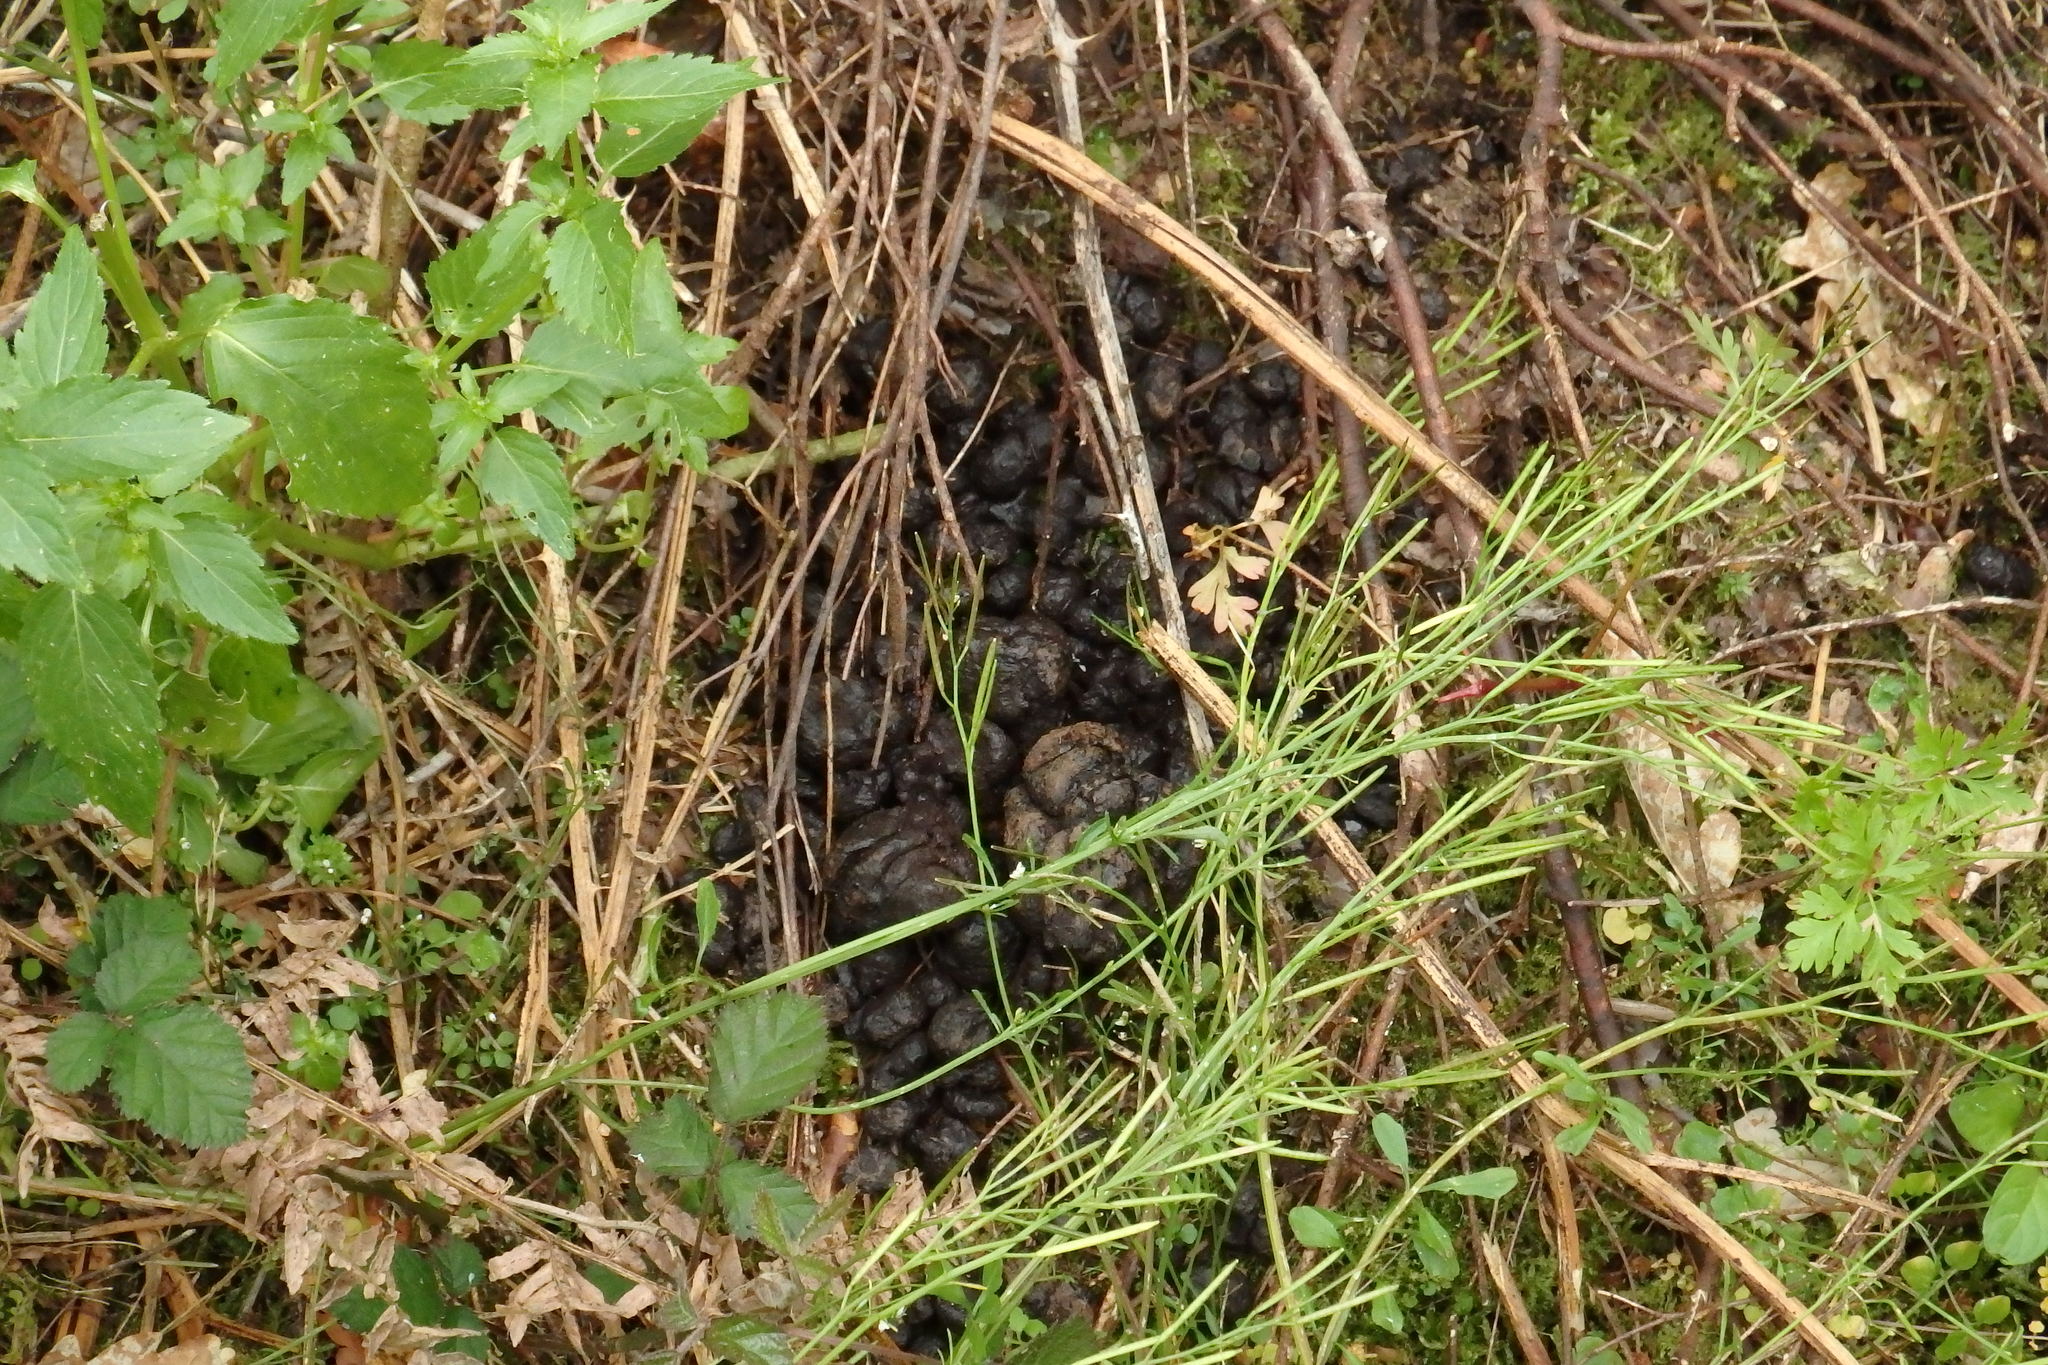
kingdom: Animalia
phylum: Chordata
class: Mammalia
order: Artiodactyla
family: Suidae
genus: Sus
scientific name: Sus scrofa
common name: Wild boar
